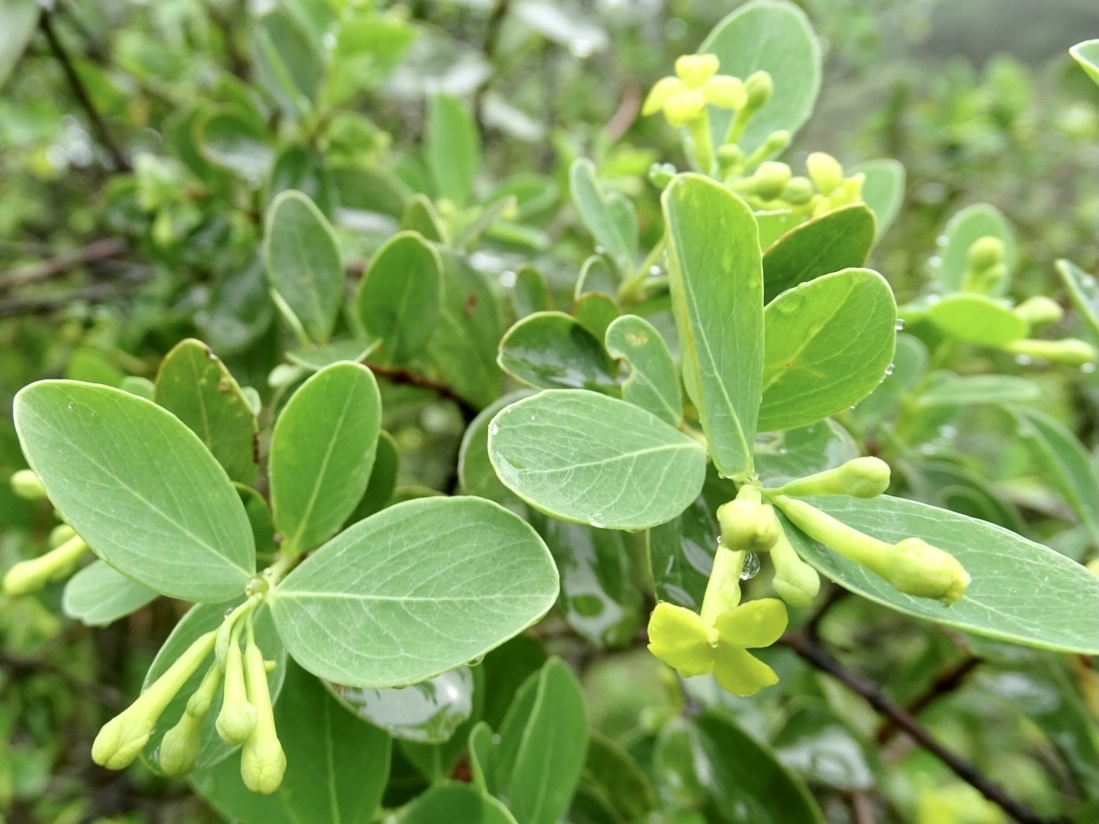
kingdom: Plantae
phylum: Tracheophyta
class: Magnoliopsida
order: Malvales
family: Thymelaeaceae
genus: Wikstroemia
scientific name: Wikstroemia indica
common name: Tiebush
